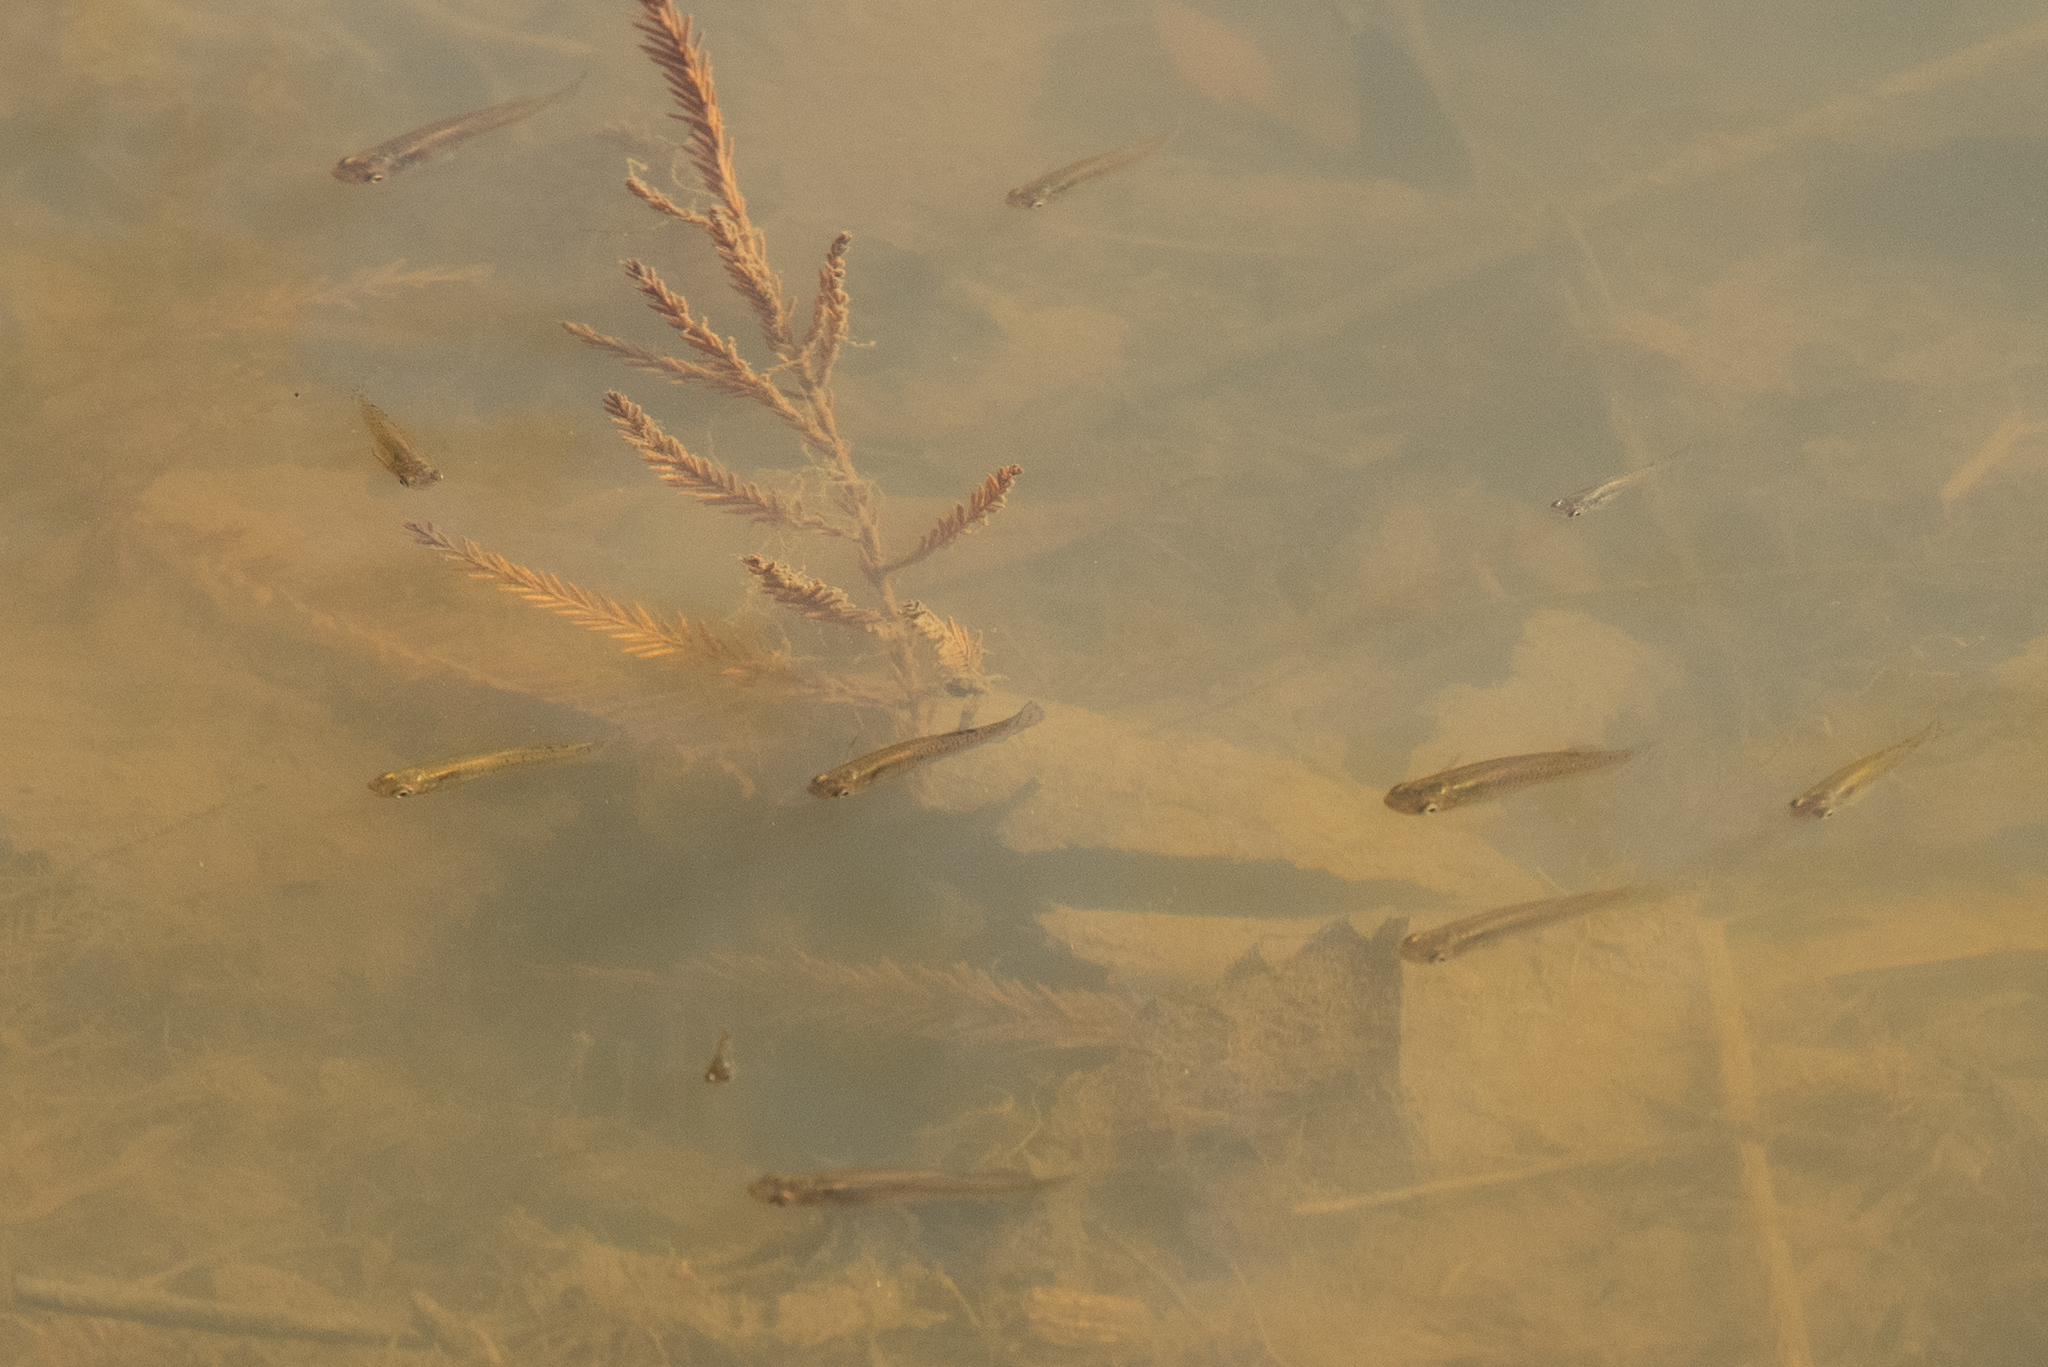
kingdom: Animalia
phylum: Chordata
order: Cyprinodontiformes
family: Poeciliidae
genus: Gambusia
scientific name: Gambusia holbrooki
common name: Eastern mosquitofish
